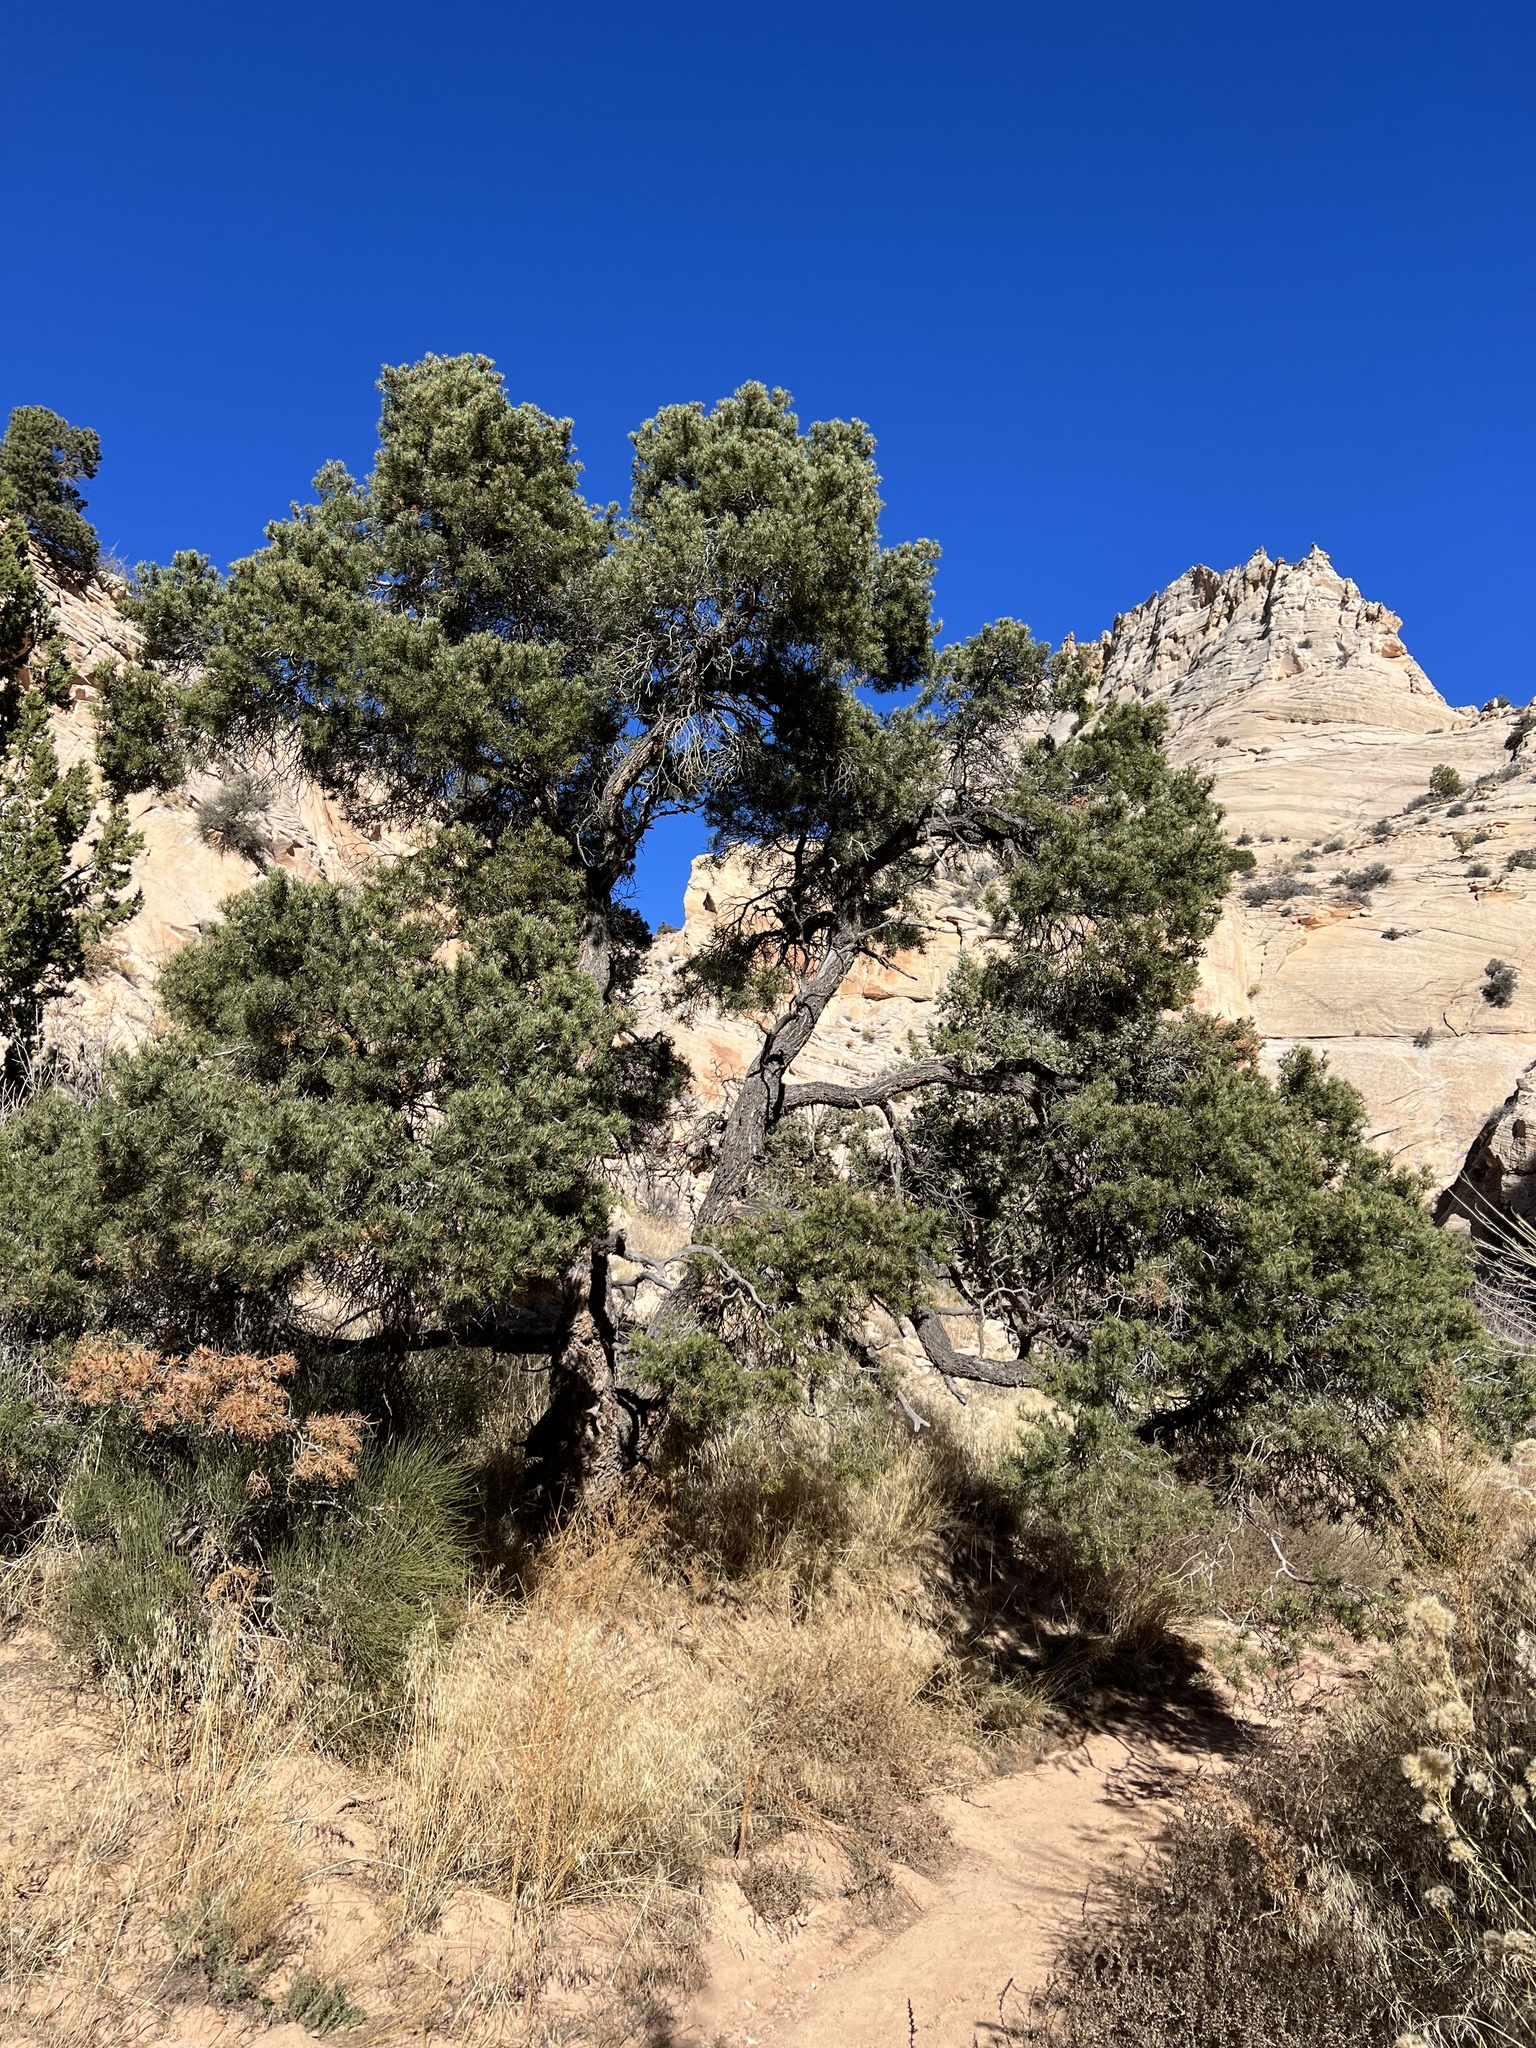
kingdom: Plantae
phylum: Tracheophyta
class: Pinopsida
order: Pinales
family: Pinaceae
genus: Pinus
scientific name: Pinus edulis
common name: Colorado pinyon
